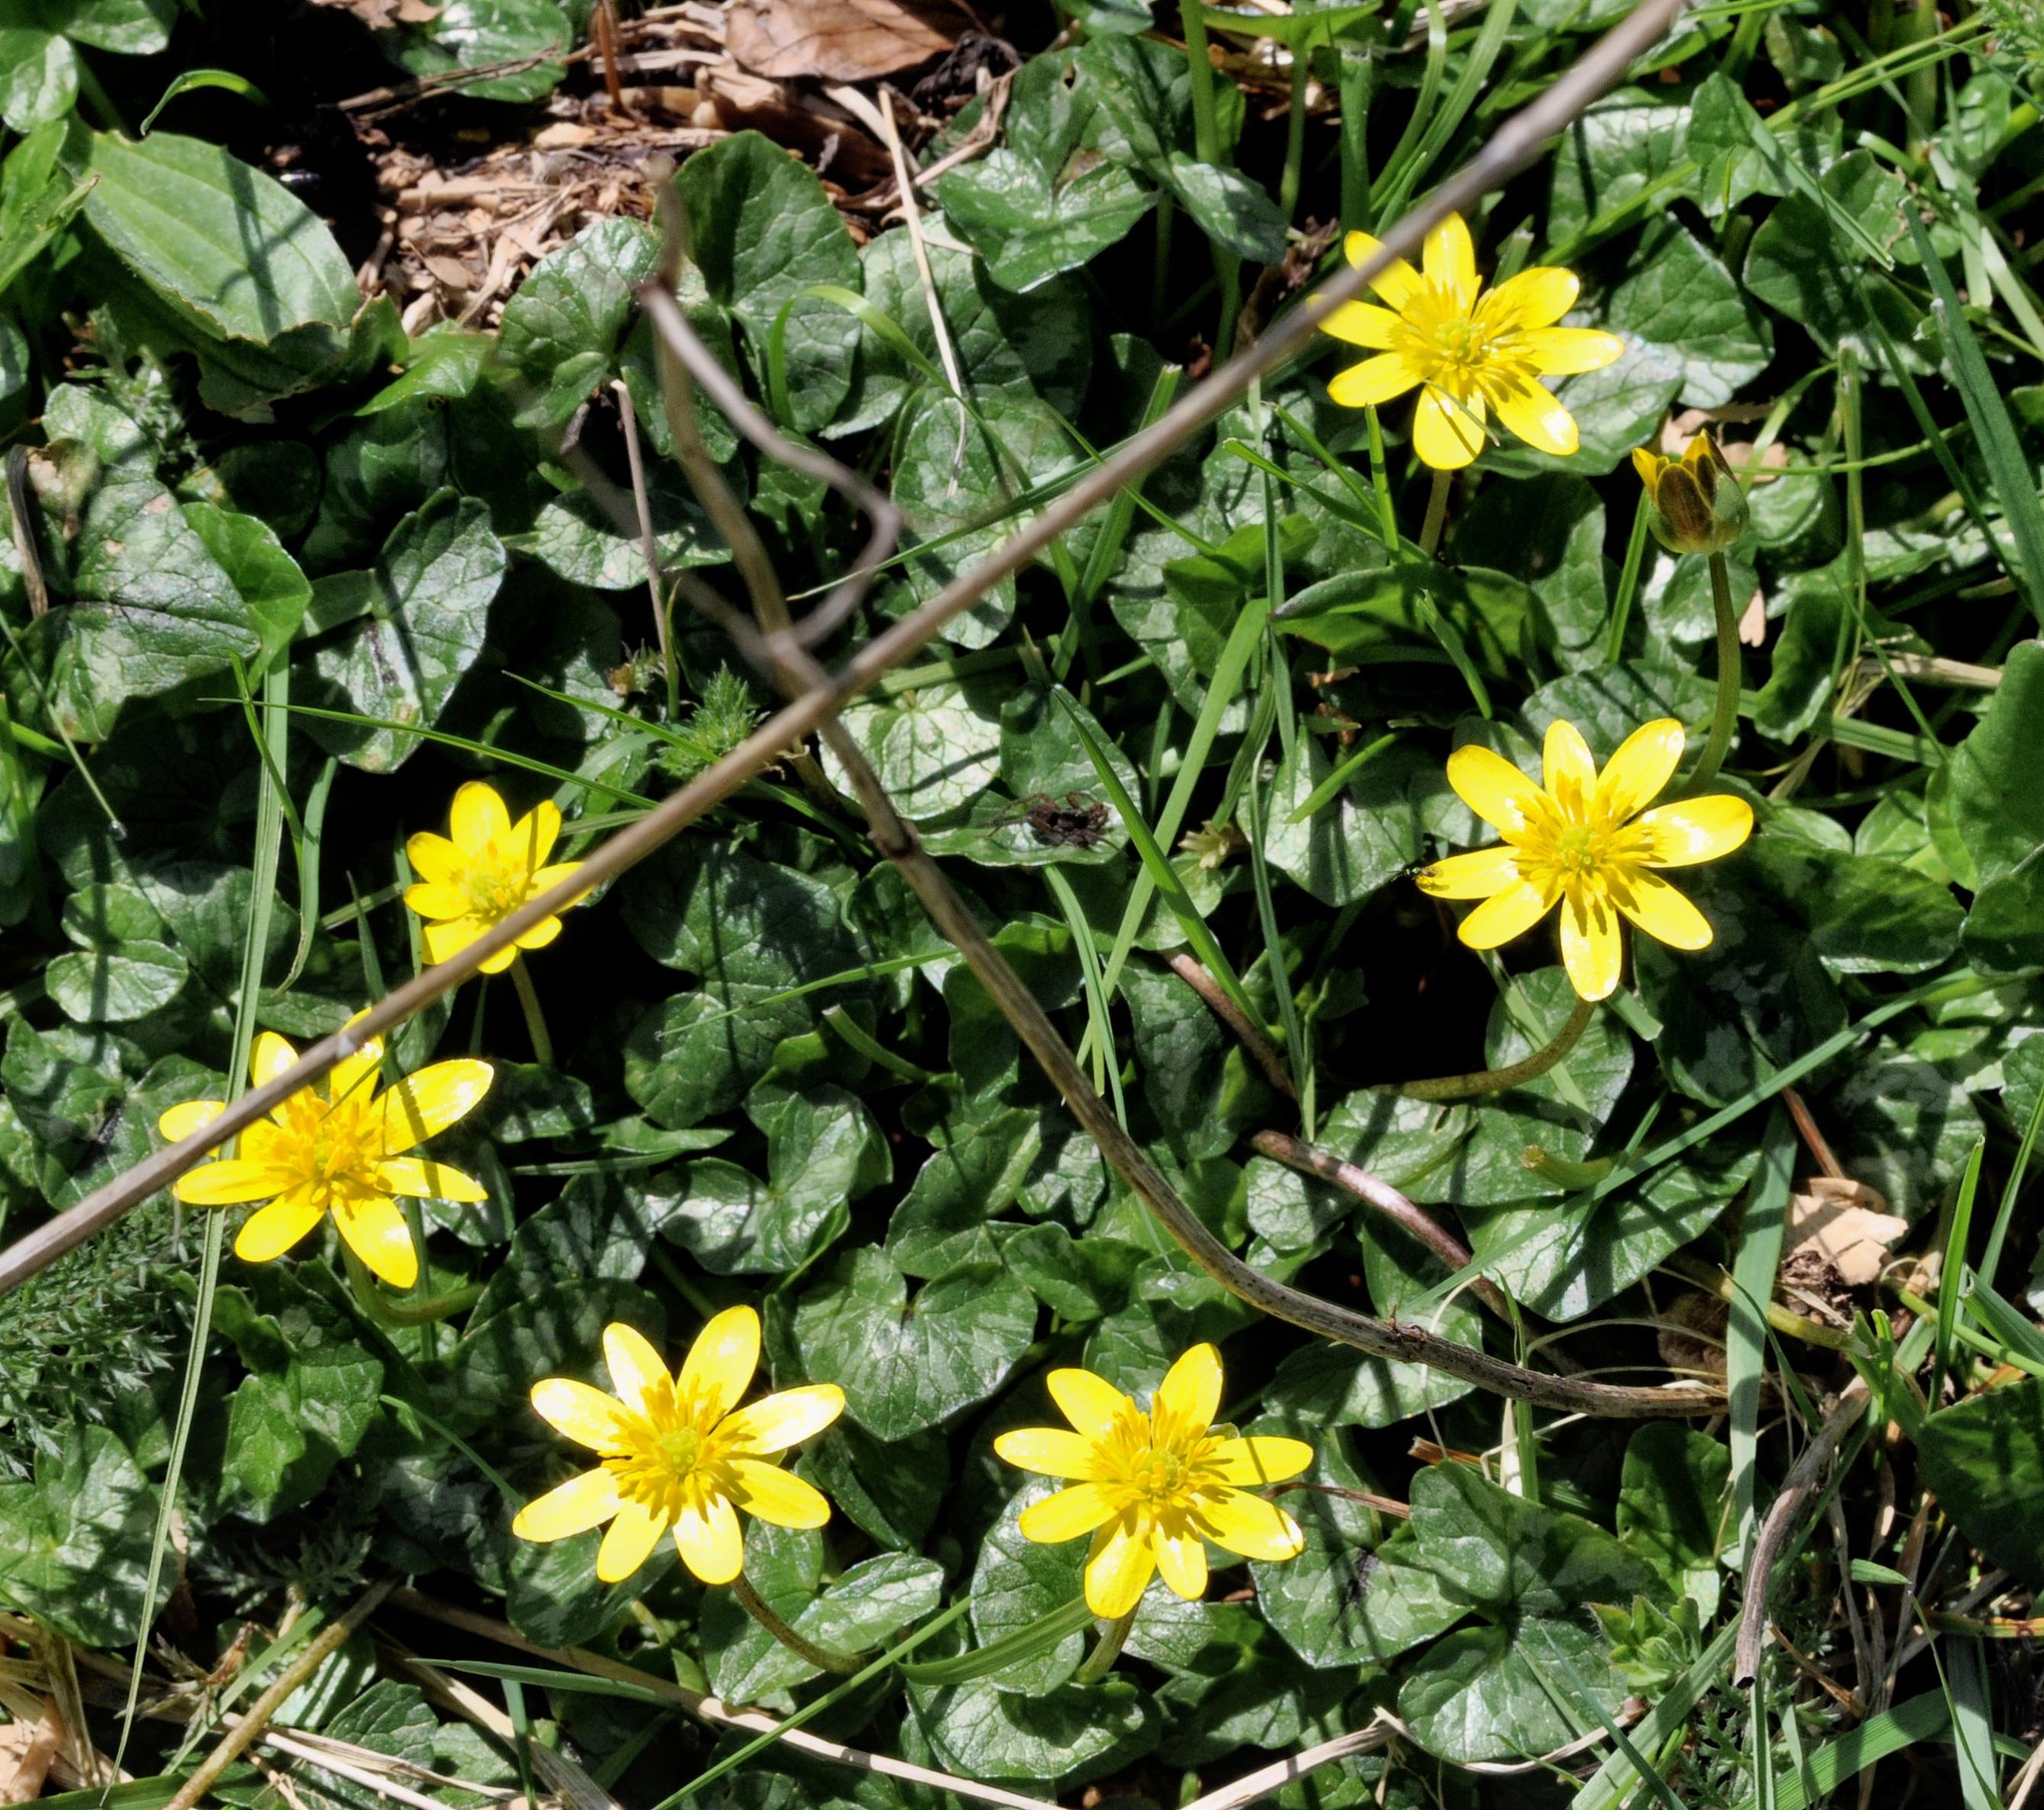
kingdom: Plantae
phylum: Tracheophyta
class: Magnoliopsida
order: Ranunculales
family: Ranunculaceae
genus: Ficaria
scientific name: Ficaria verna
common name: Lesser celandine
